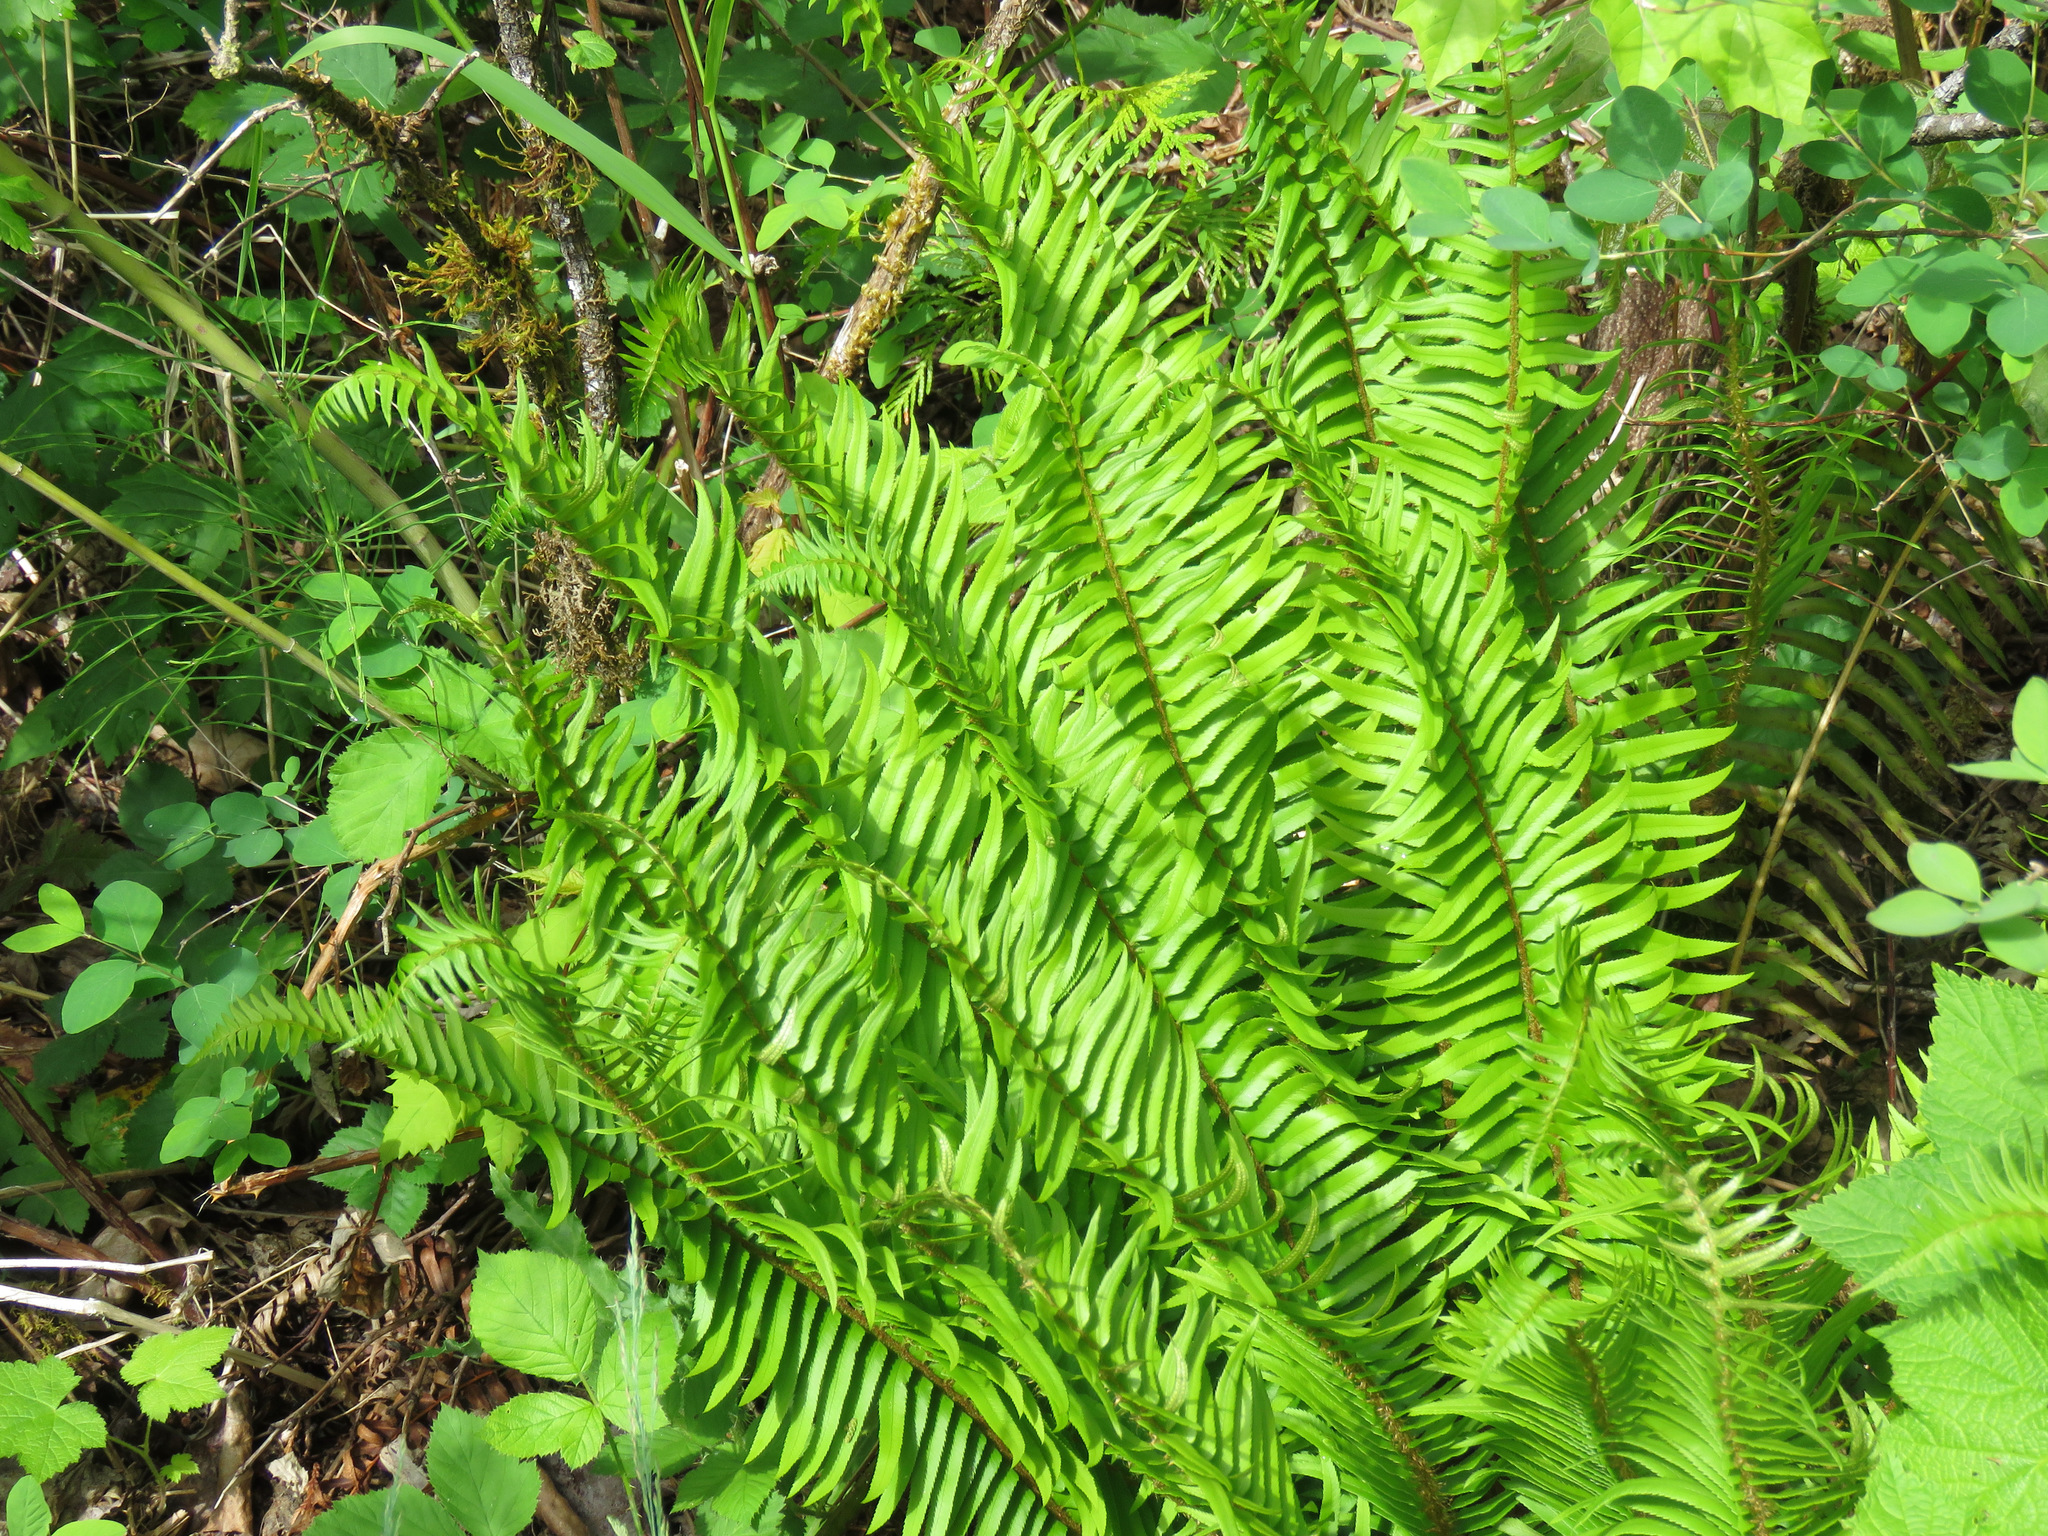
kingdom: Plantae
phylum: Tracheophyta
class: Polypodiopsida
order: Polypodiales
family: Dryopteridaceae
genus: Polystichum
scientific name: Polystichum munitum
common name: Western sword-fern
